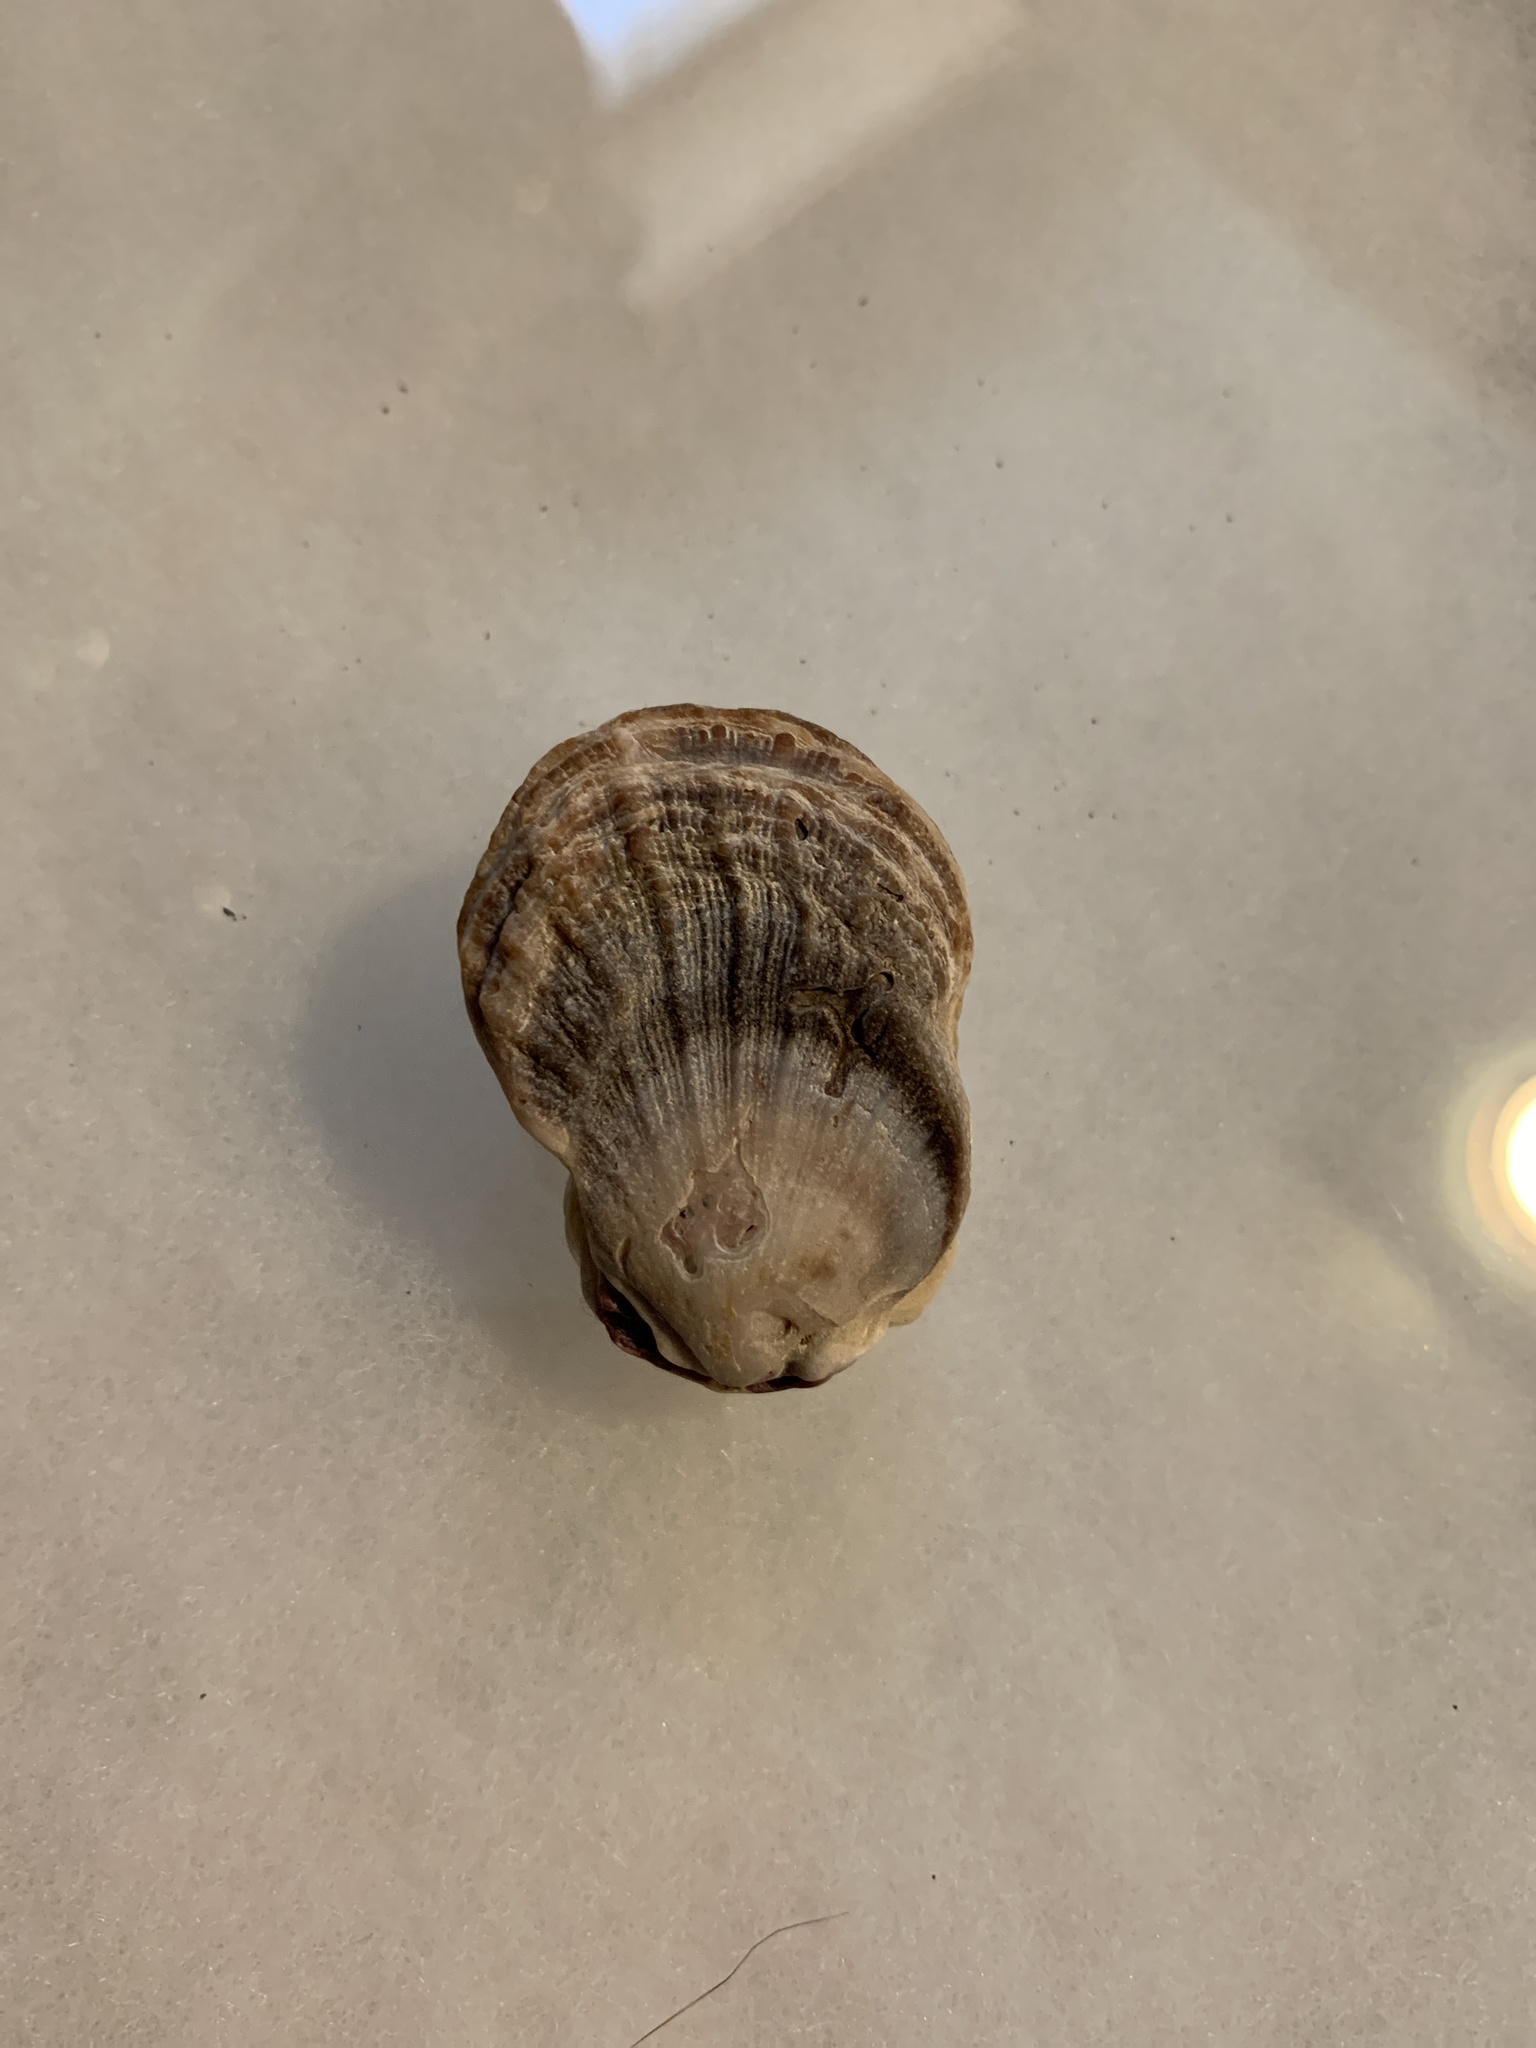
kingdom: Animalia
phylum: Mollusca
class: Bivalvia
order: Pectinida
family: Pectinidae
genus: Crassadoma
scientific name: Crassadoma gigantea
